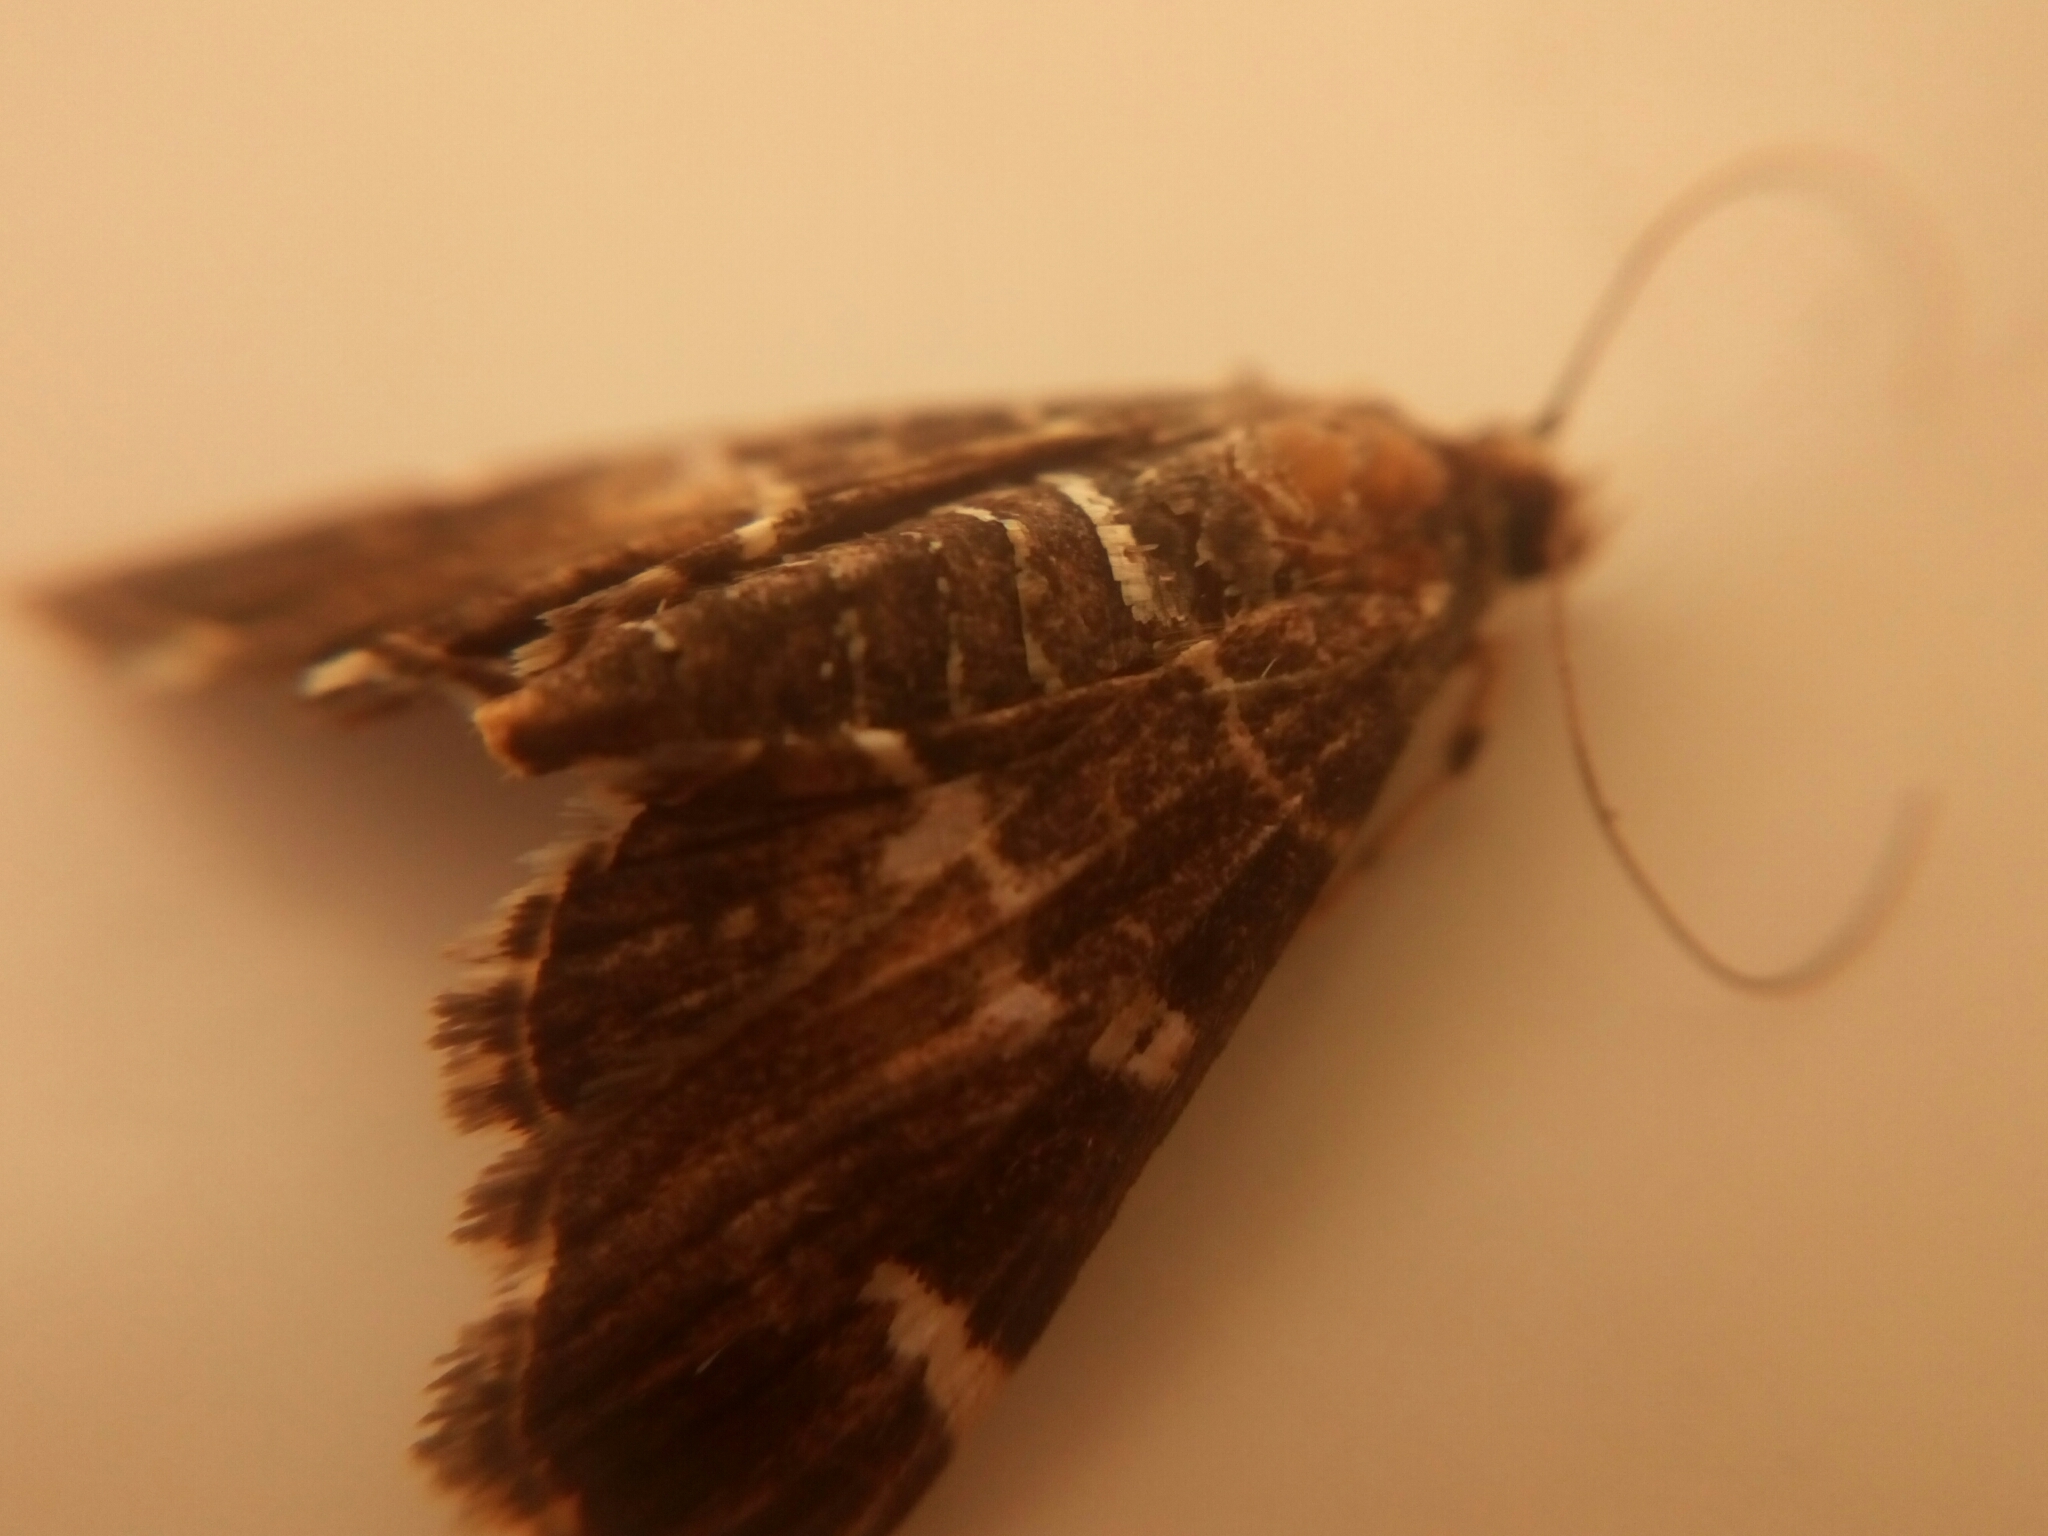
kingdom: Animalia
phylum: Arthropoda
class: Insecta
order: Lepidoptera
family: Crambidae
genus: Hymenia
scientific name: Hymenia perspectalis
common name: Spotted beet webworm
